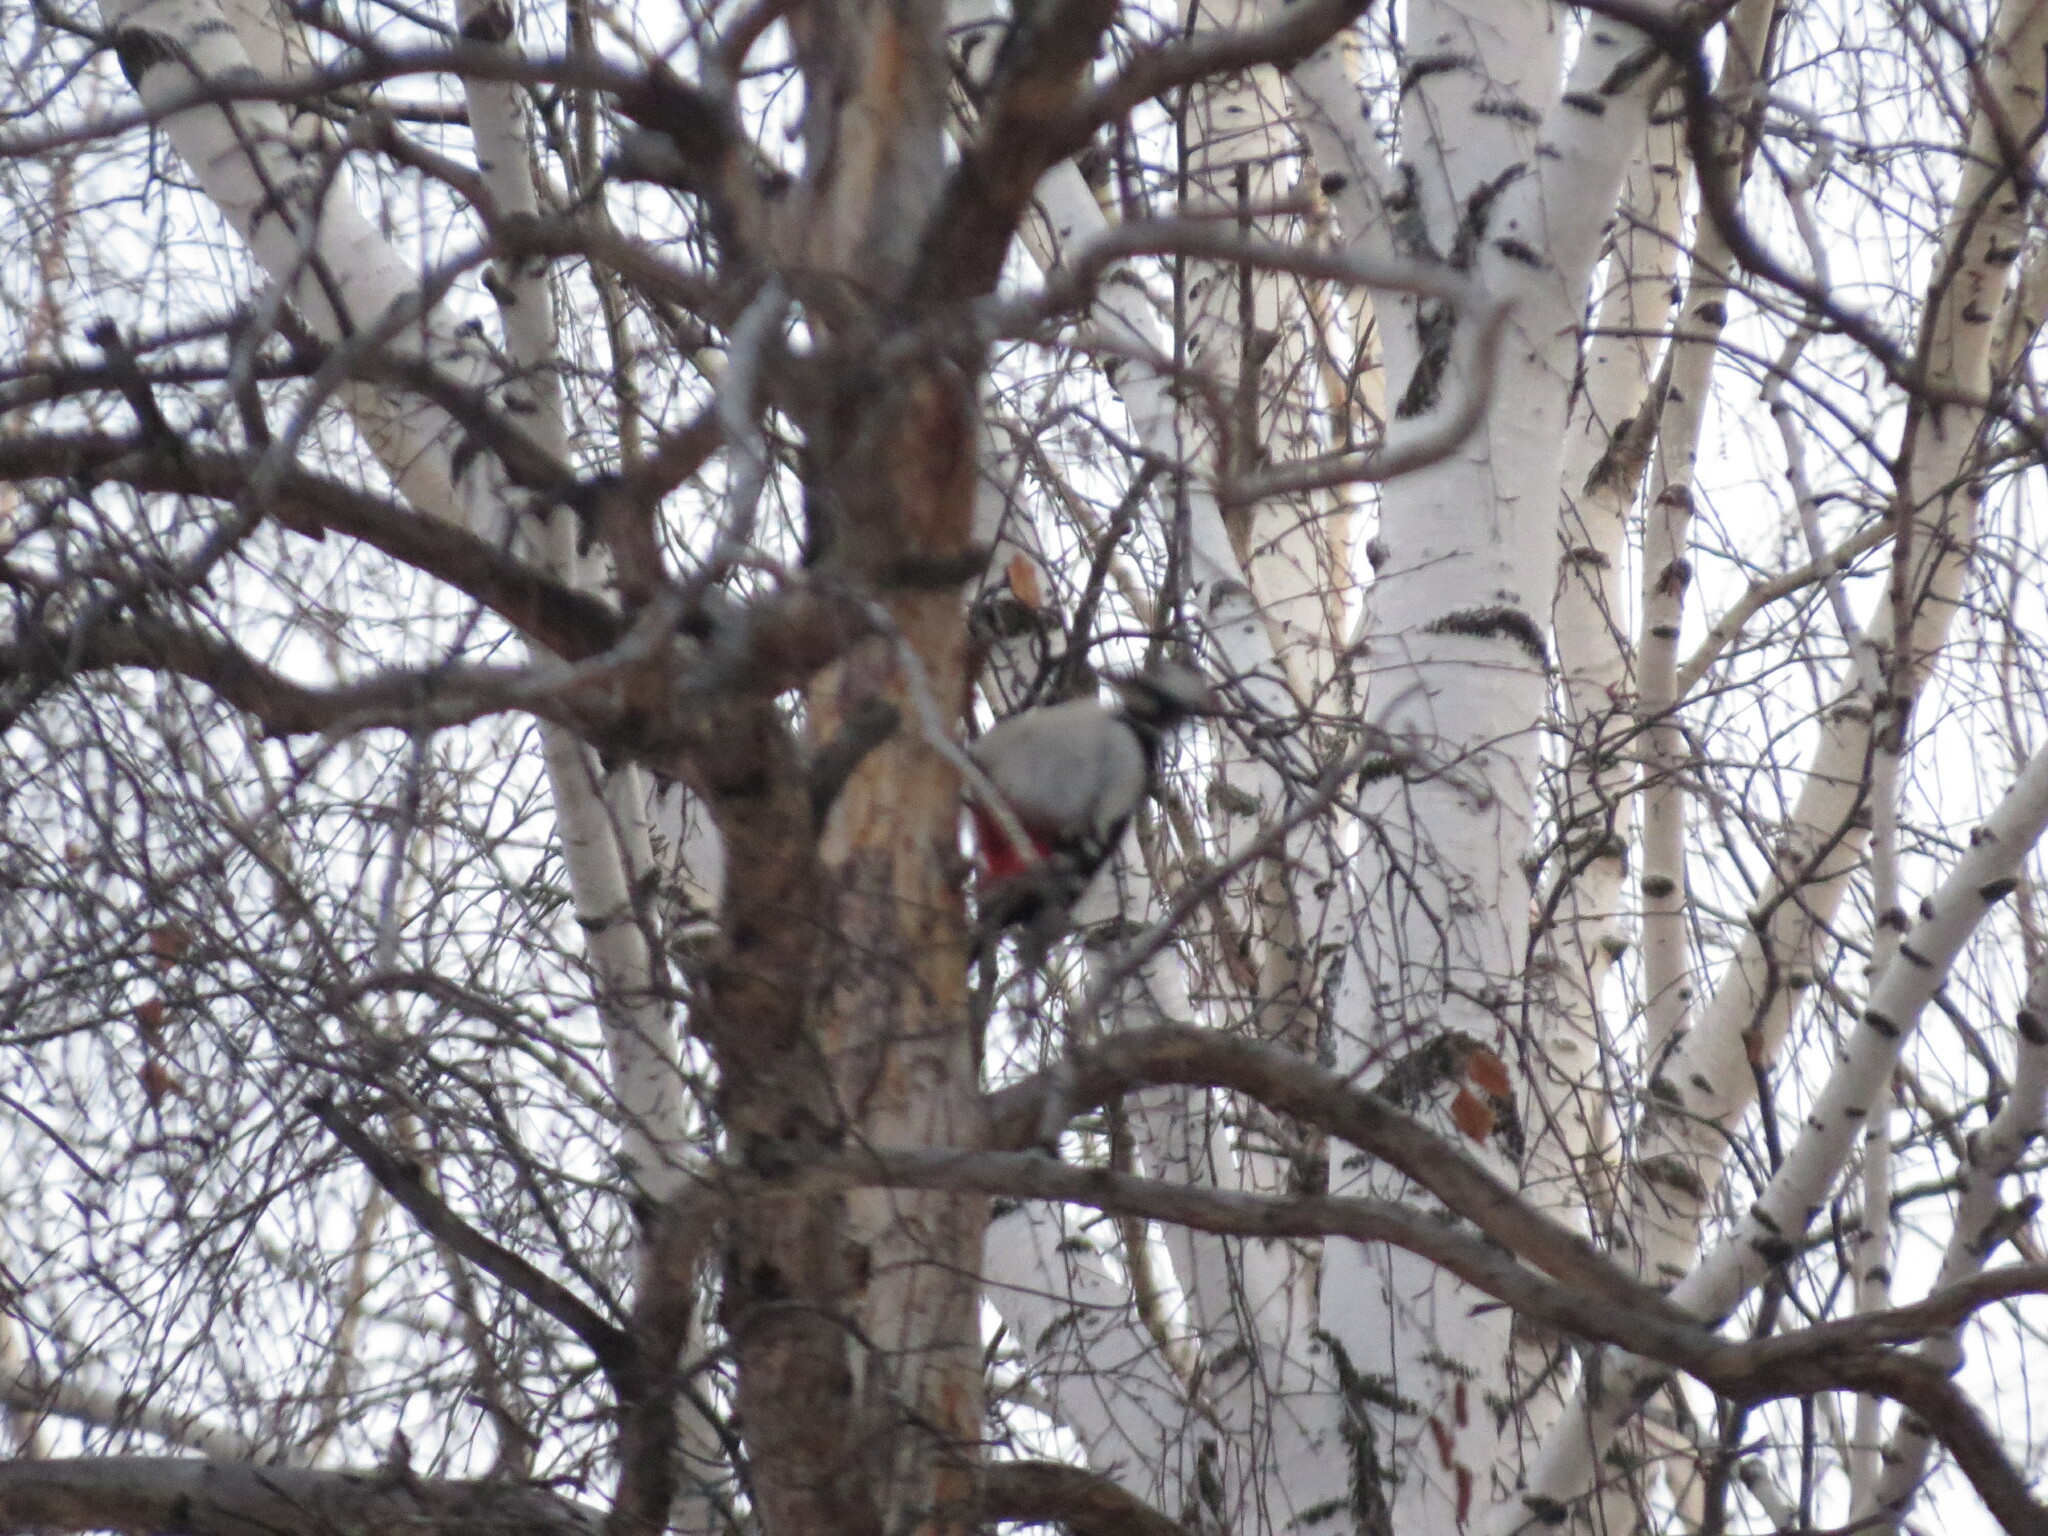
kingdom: Animalia
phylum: Chordata
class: Aves
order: Piciformes
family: Picidae
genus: Dendrocopos
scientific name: Dendrocopos major
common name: Great spotted woodpecker
